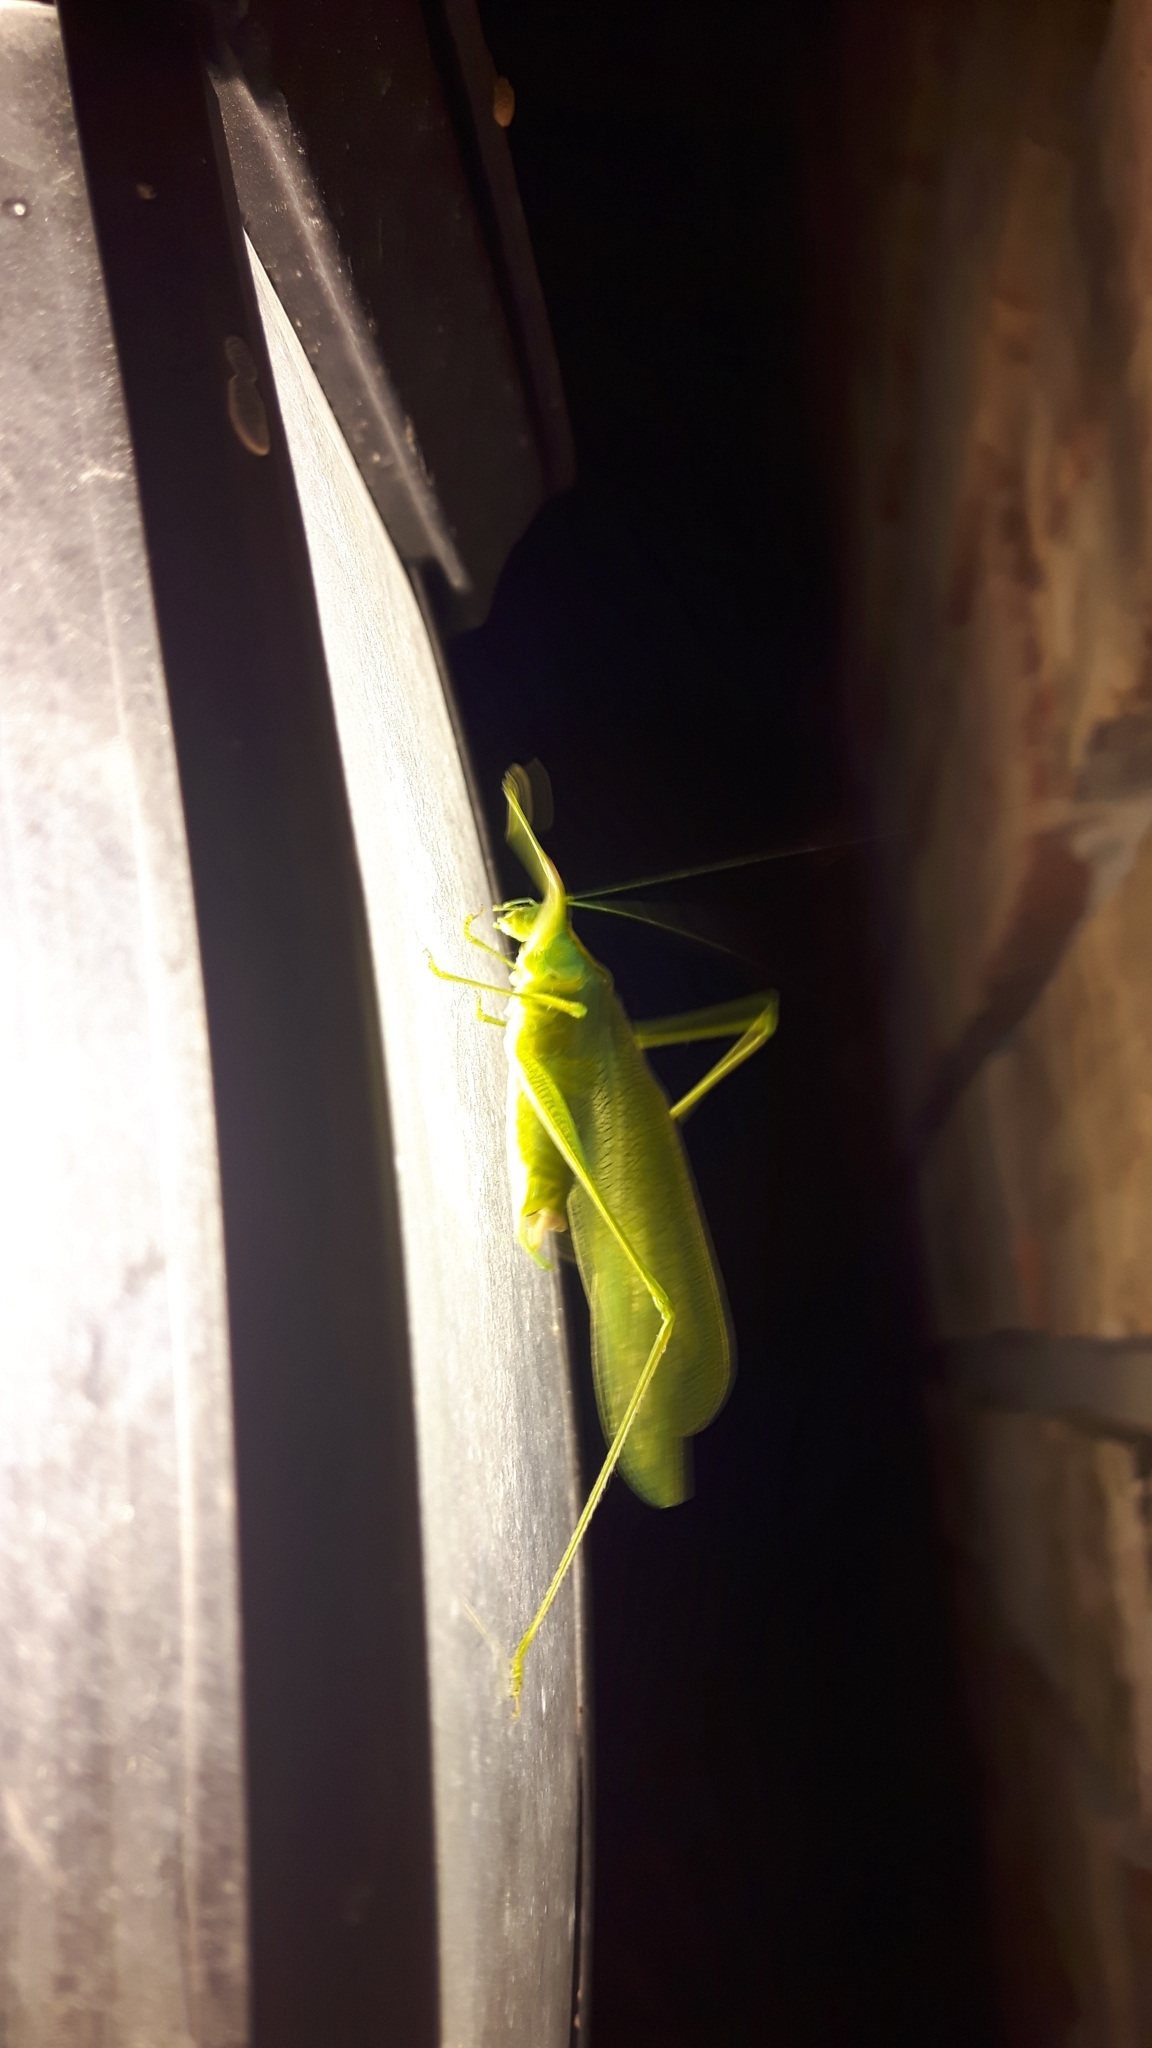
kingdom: Animalia
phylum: Arthropoda
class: Insecta
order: Orthoptera
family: Tettigoniidae
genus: Scudderia
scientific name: Scudderia septentrionalis
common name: Northern bush-katydid
